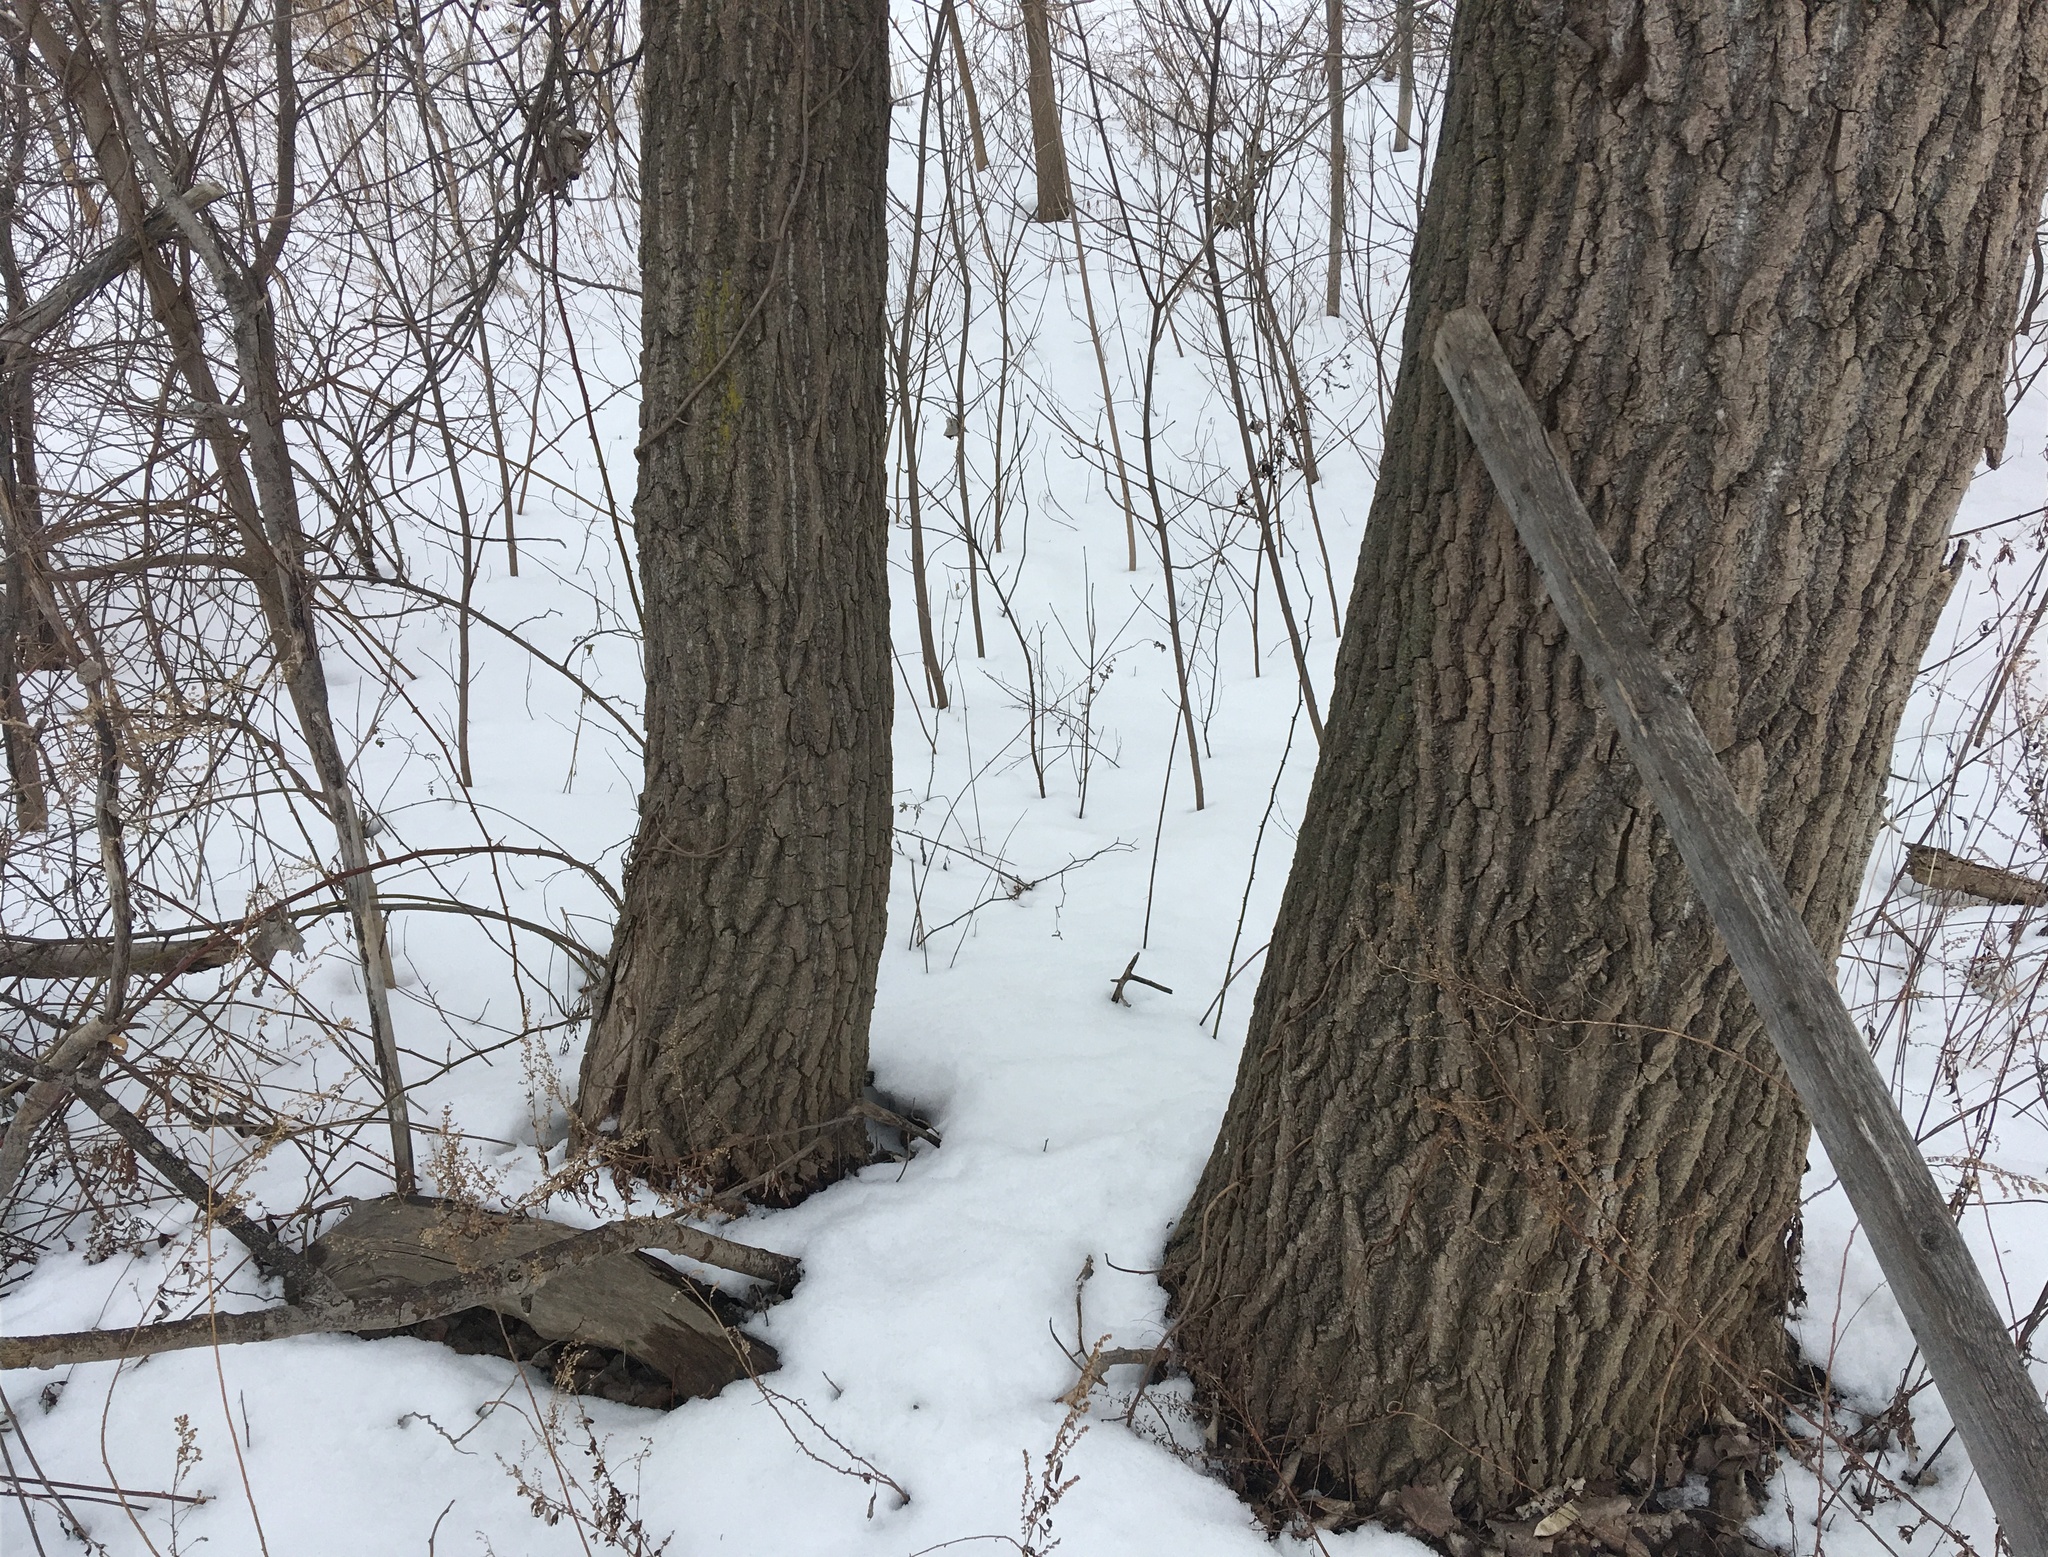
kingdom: Plantae
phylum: Tracheophyta
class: Magnoliopsida
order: Malpighiales
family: Salicaceae
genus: Populus
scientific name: Populus deltoides
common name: Eastern cottonwood
